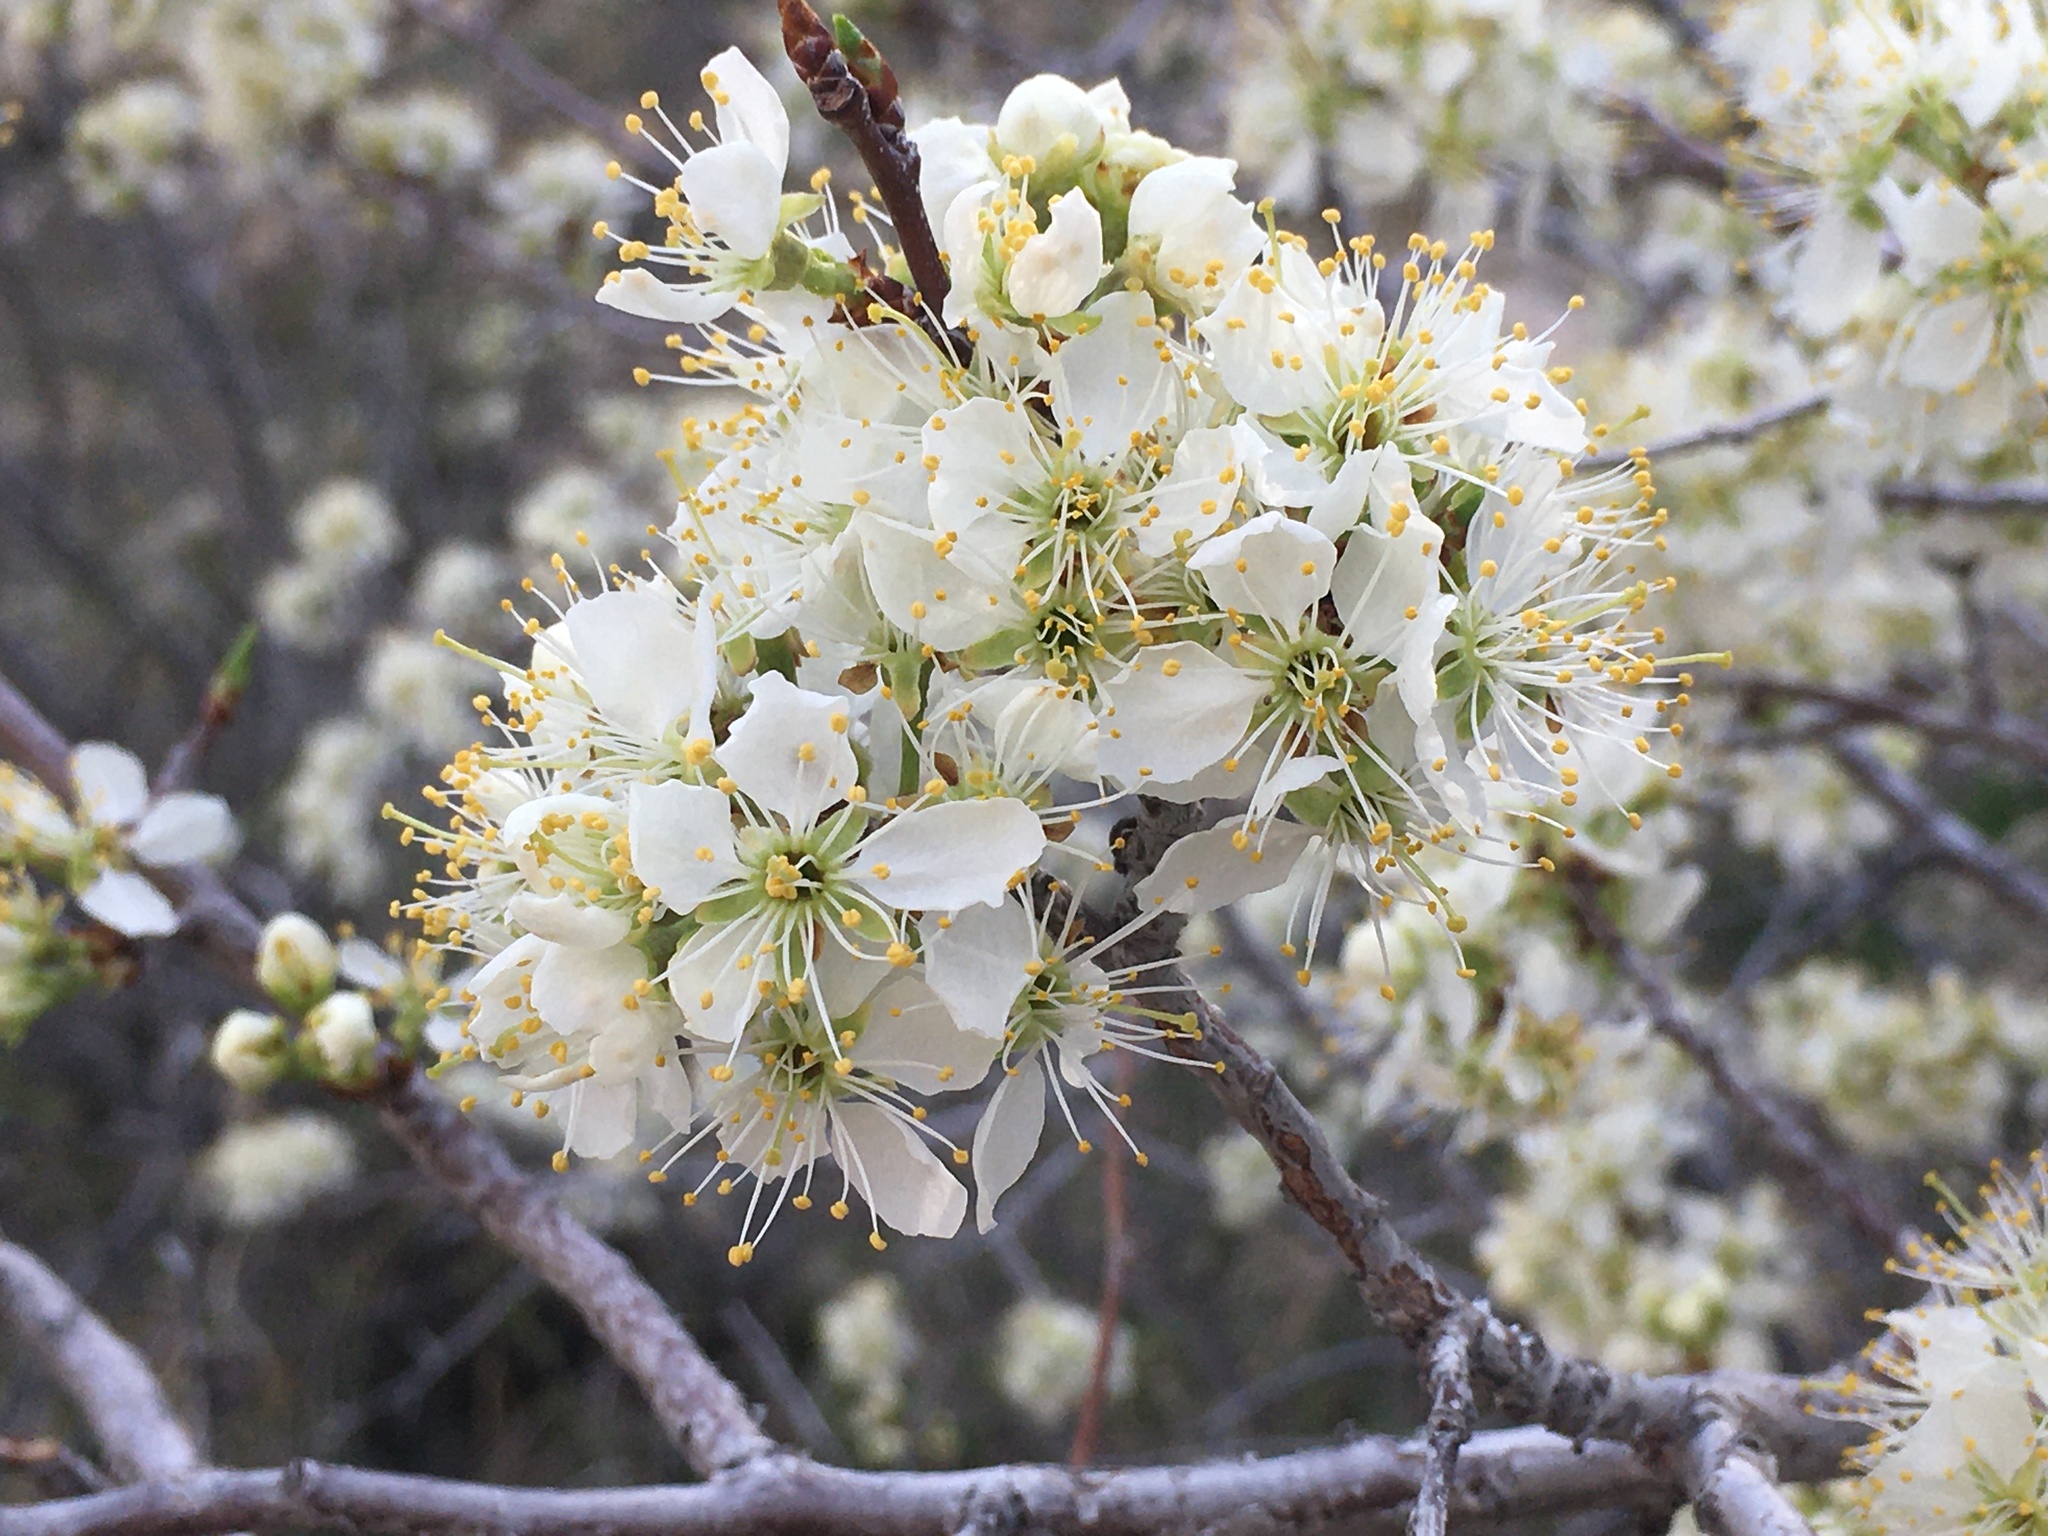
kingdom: Plantae
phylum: Tracheophyta
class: Magnoliopsida
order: Rosales
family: Rosaceae
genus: Prunus
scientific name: Prunus americana
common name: American plum
